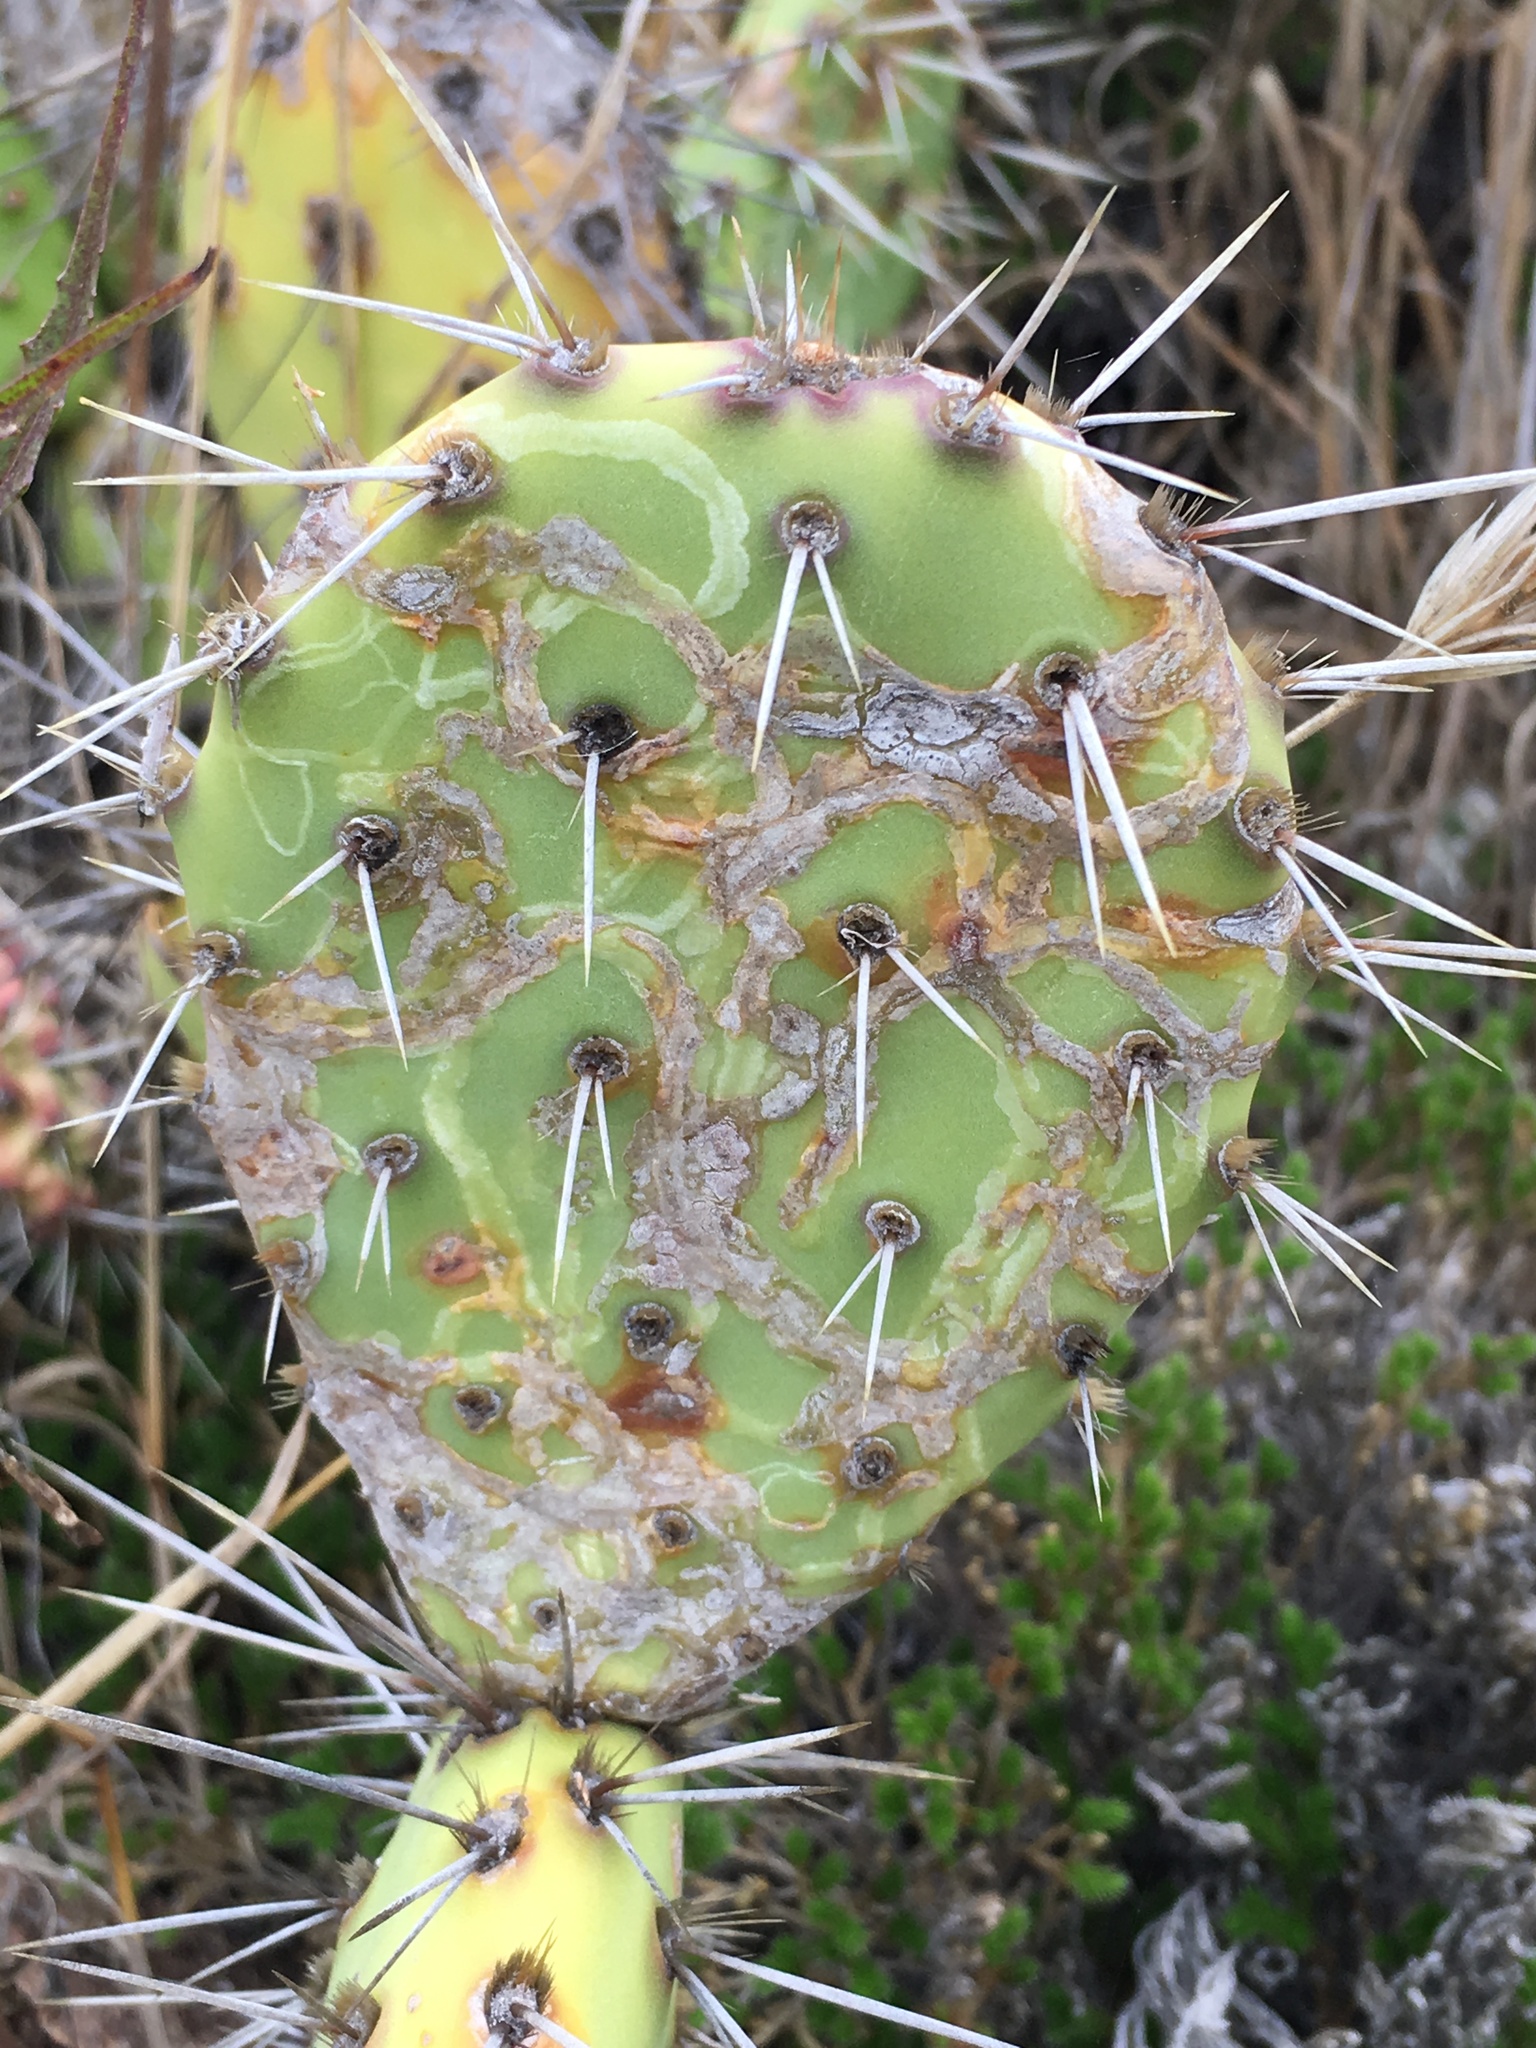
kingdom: Animalia
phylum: Arthropoda
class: Insecta
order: Lepidoptera
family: Gracillariidae
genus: Marmara
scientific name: Marmara opuntiella
